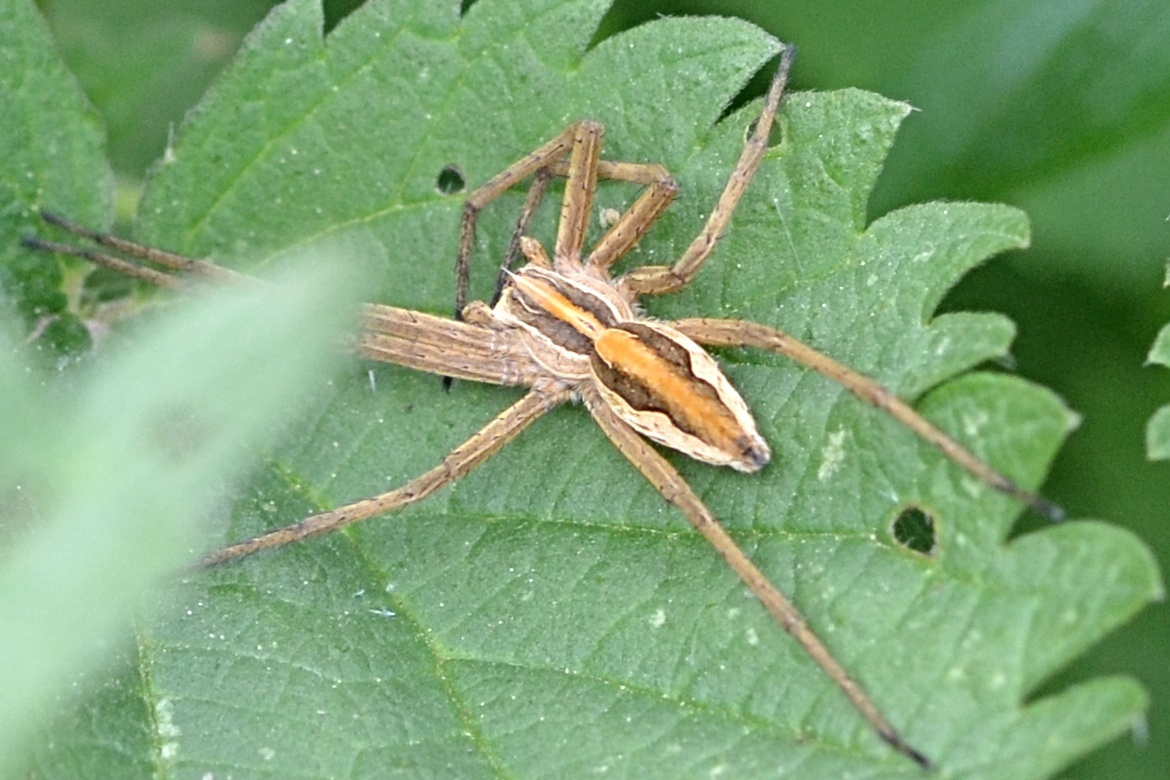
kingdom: Animalia
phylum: Arthropoda
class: Arachnida
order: Araneae
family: Pisauridae
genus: Pisaura
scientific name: Pisaura mirabilis
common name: Tent spider
